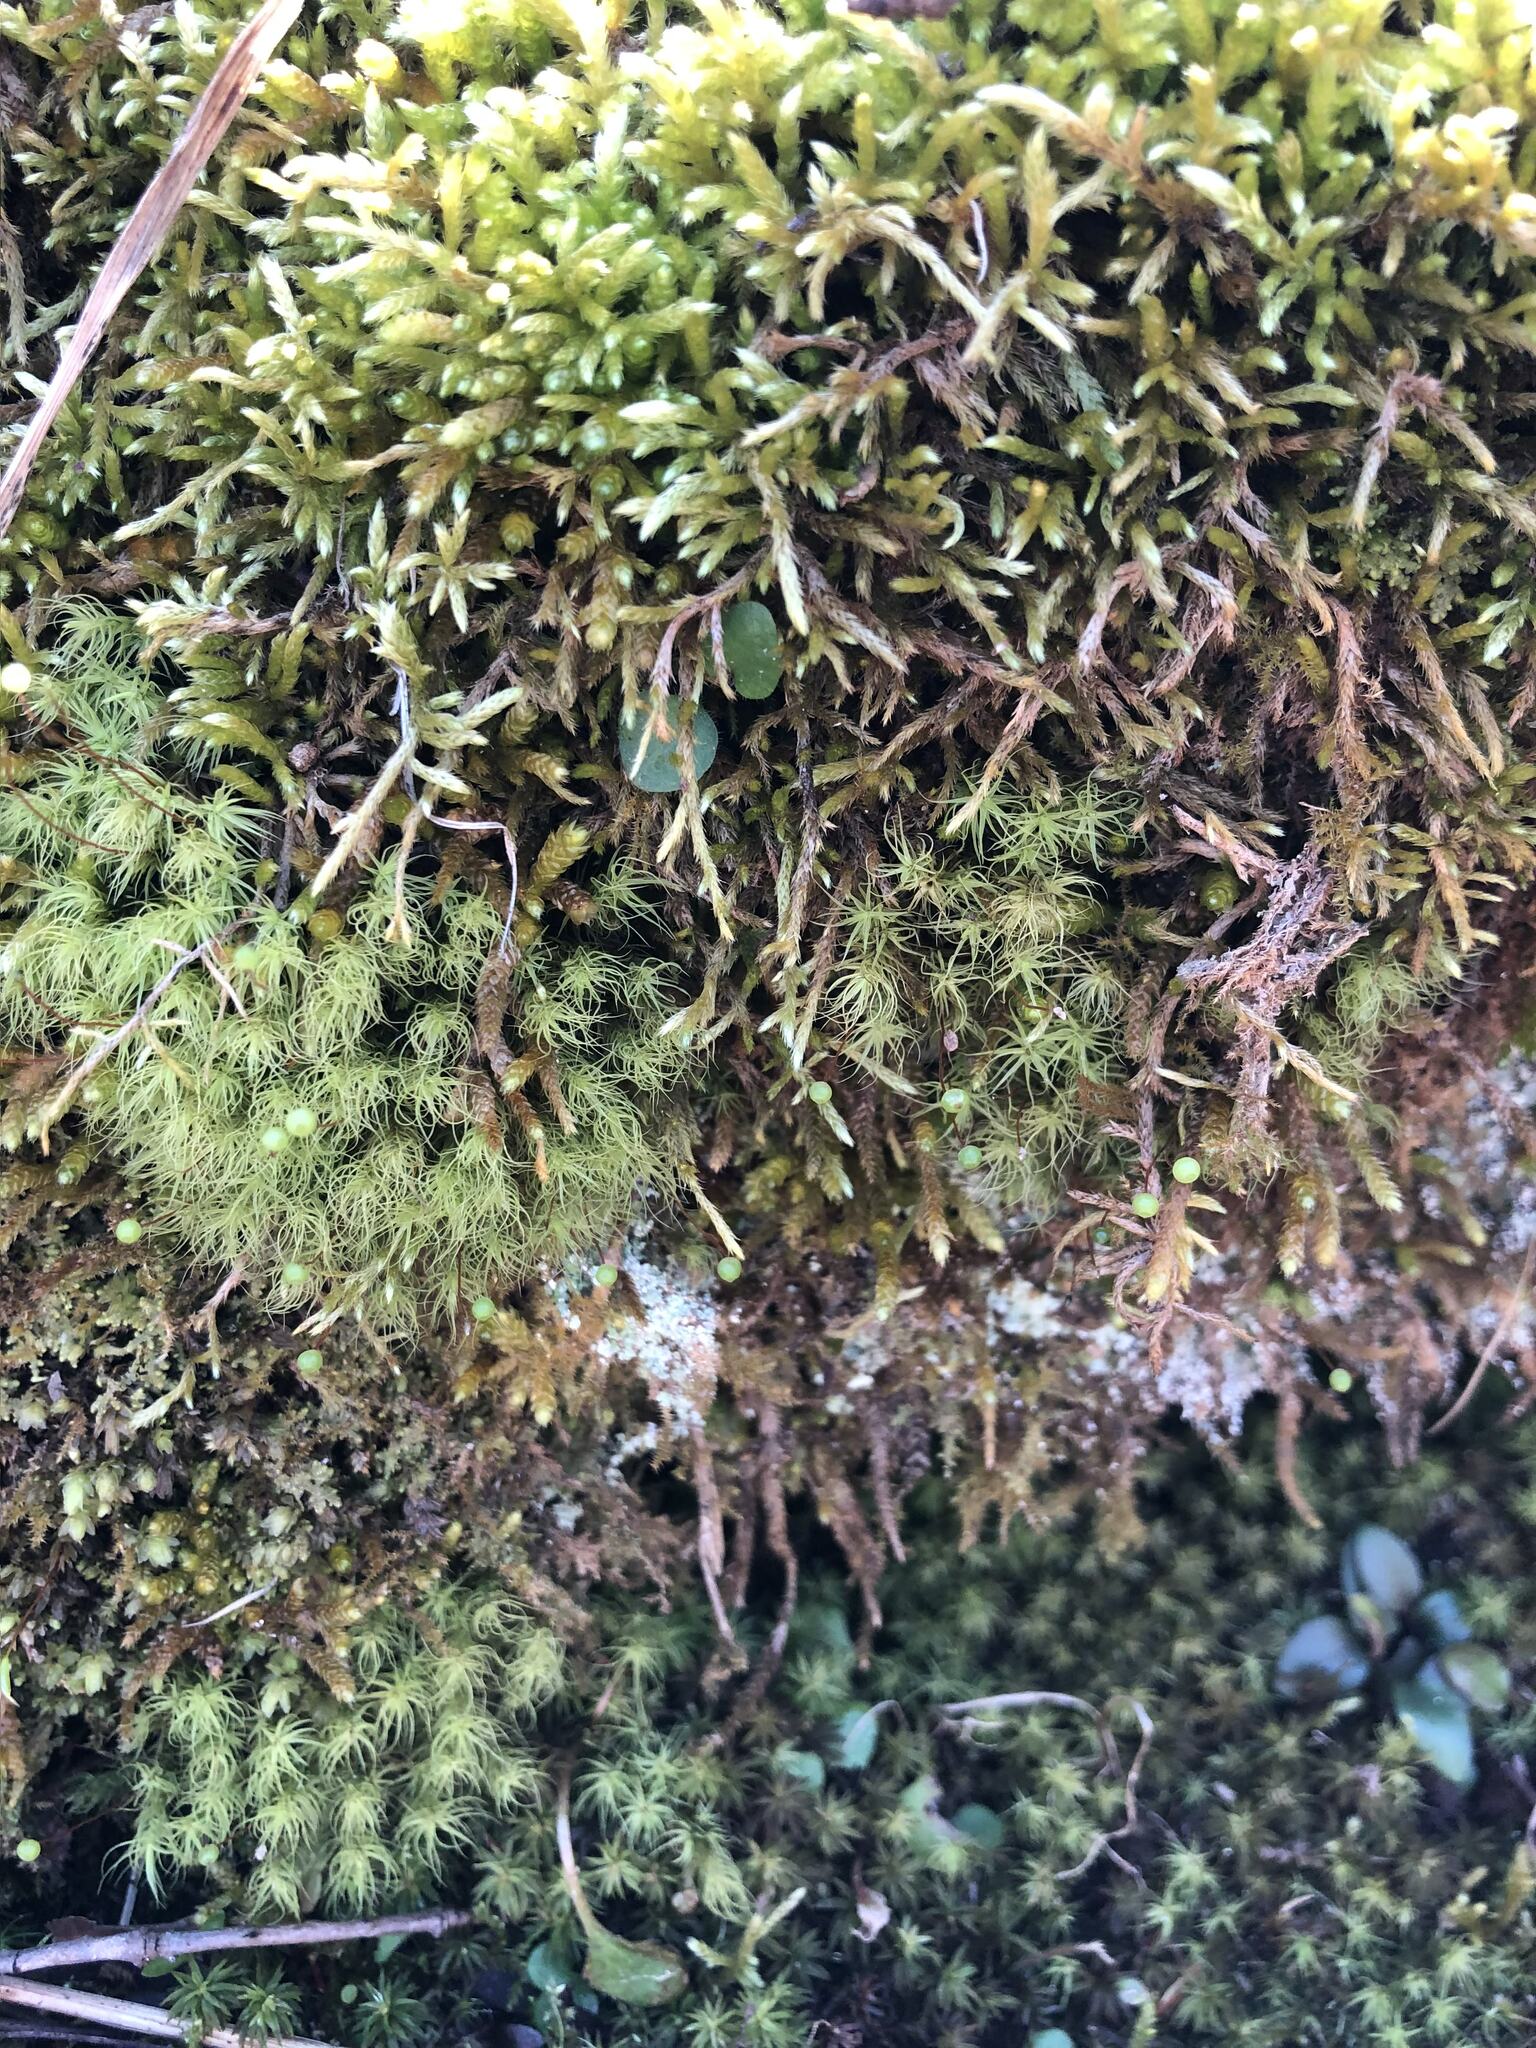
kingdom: Plantae
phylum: Bryophyta
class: Bryopsida
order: Bartramiales
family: Bartramiaceae
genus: Bartramia
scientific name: Bartramia ithyphylla
